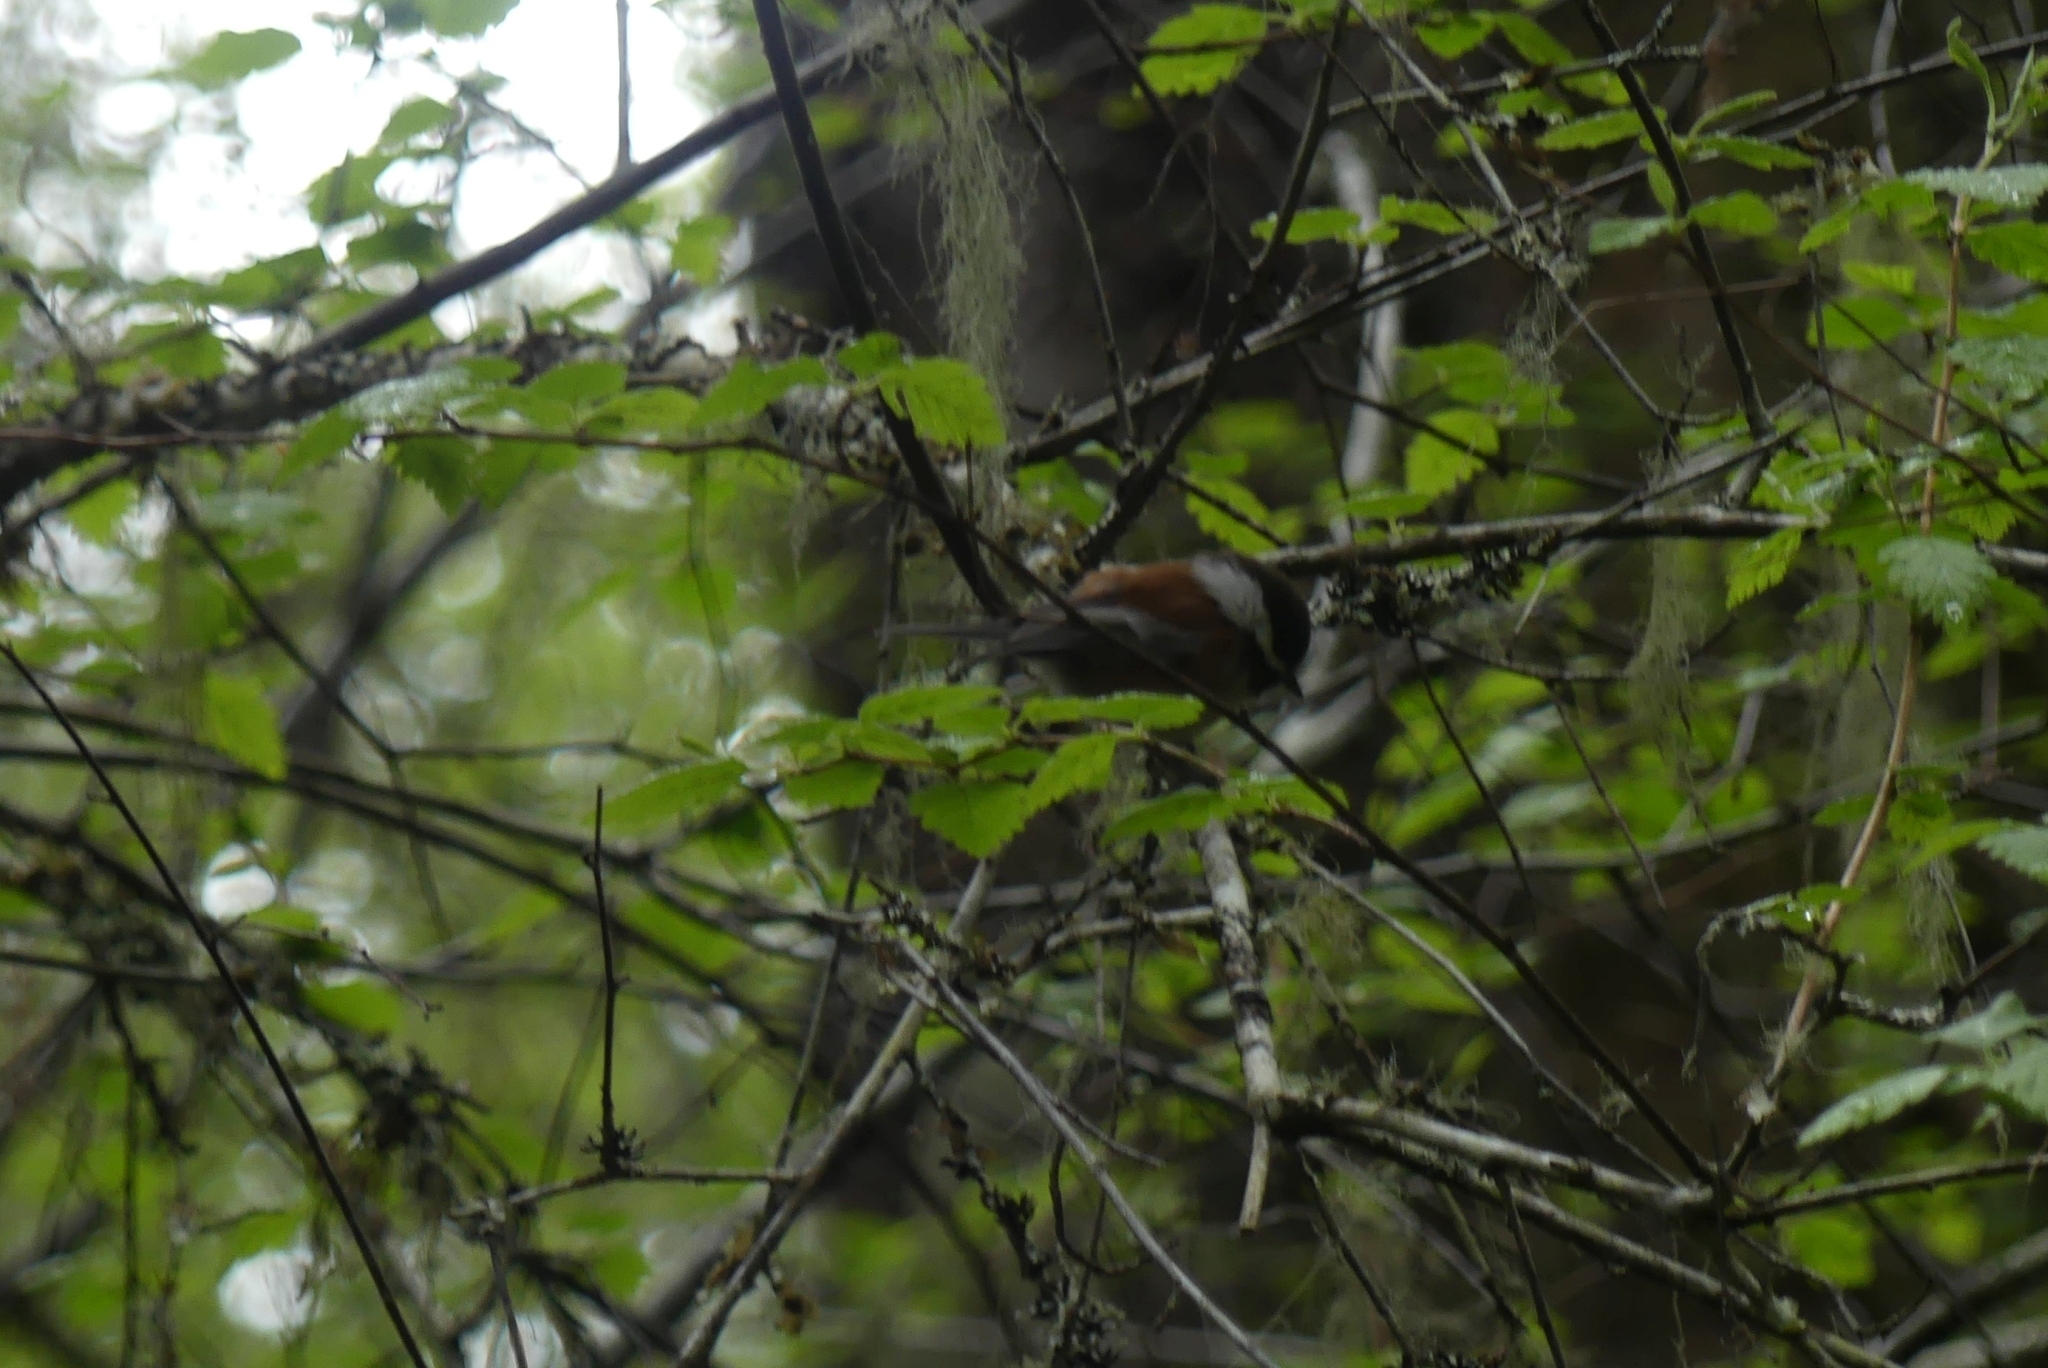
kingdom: Animalia
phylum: Chordata
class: Aves
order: Passeriformes
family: Paridae
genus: Poecile
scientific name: Poecile rufescens
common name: Chestnut-backed chickadee
